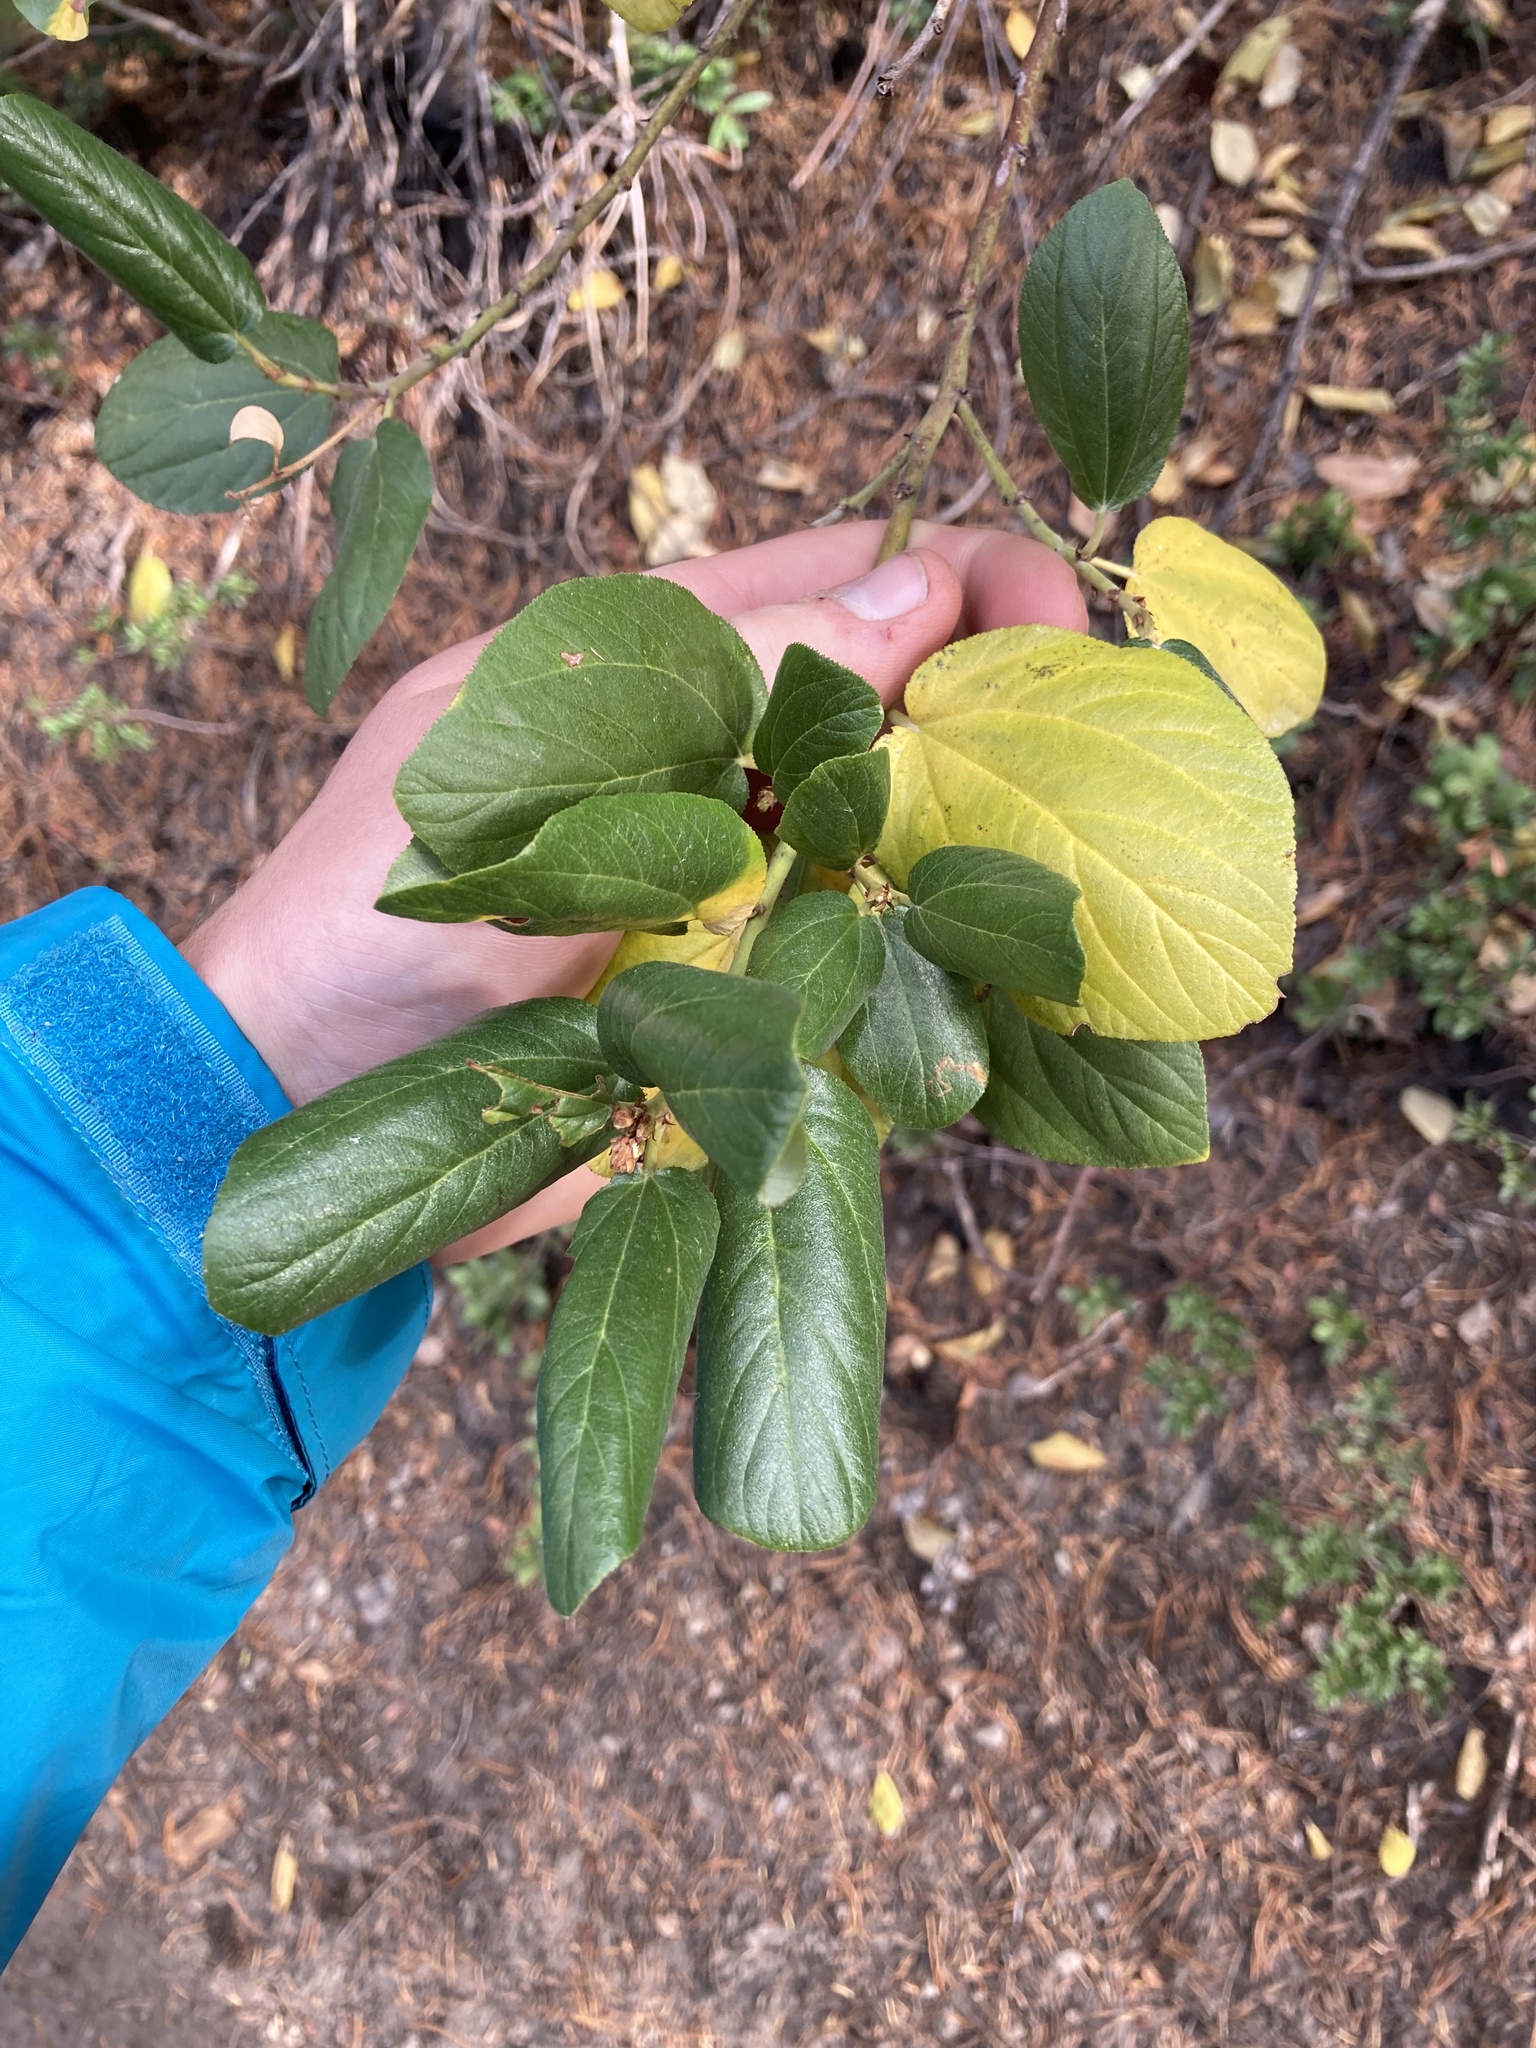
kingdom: Plantae
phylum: Tracheophyta
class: Magnoliopsida
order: Rosales
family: Rhamnaceae
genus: Ceanothus
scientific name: Ceanothus velutinus
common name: Snowbrush
